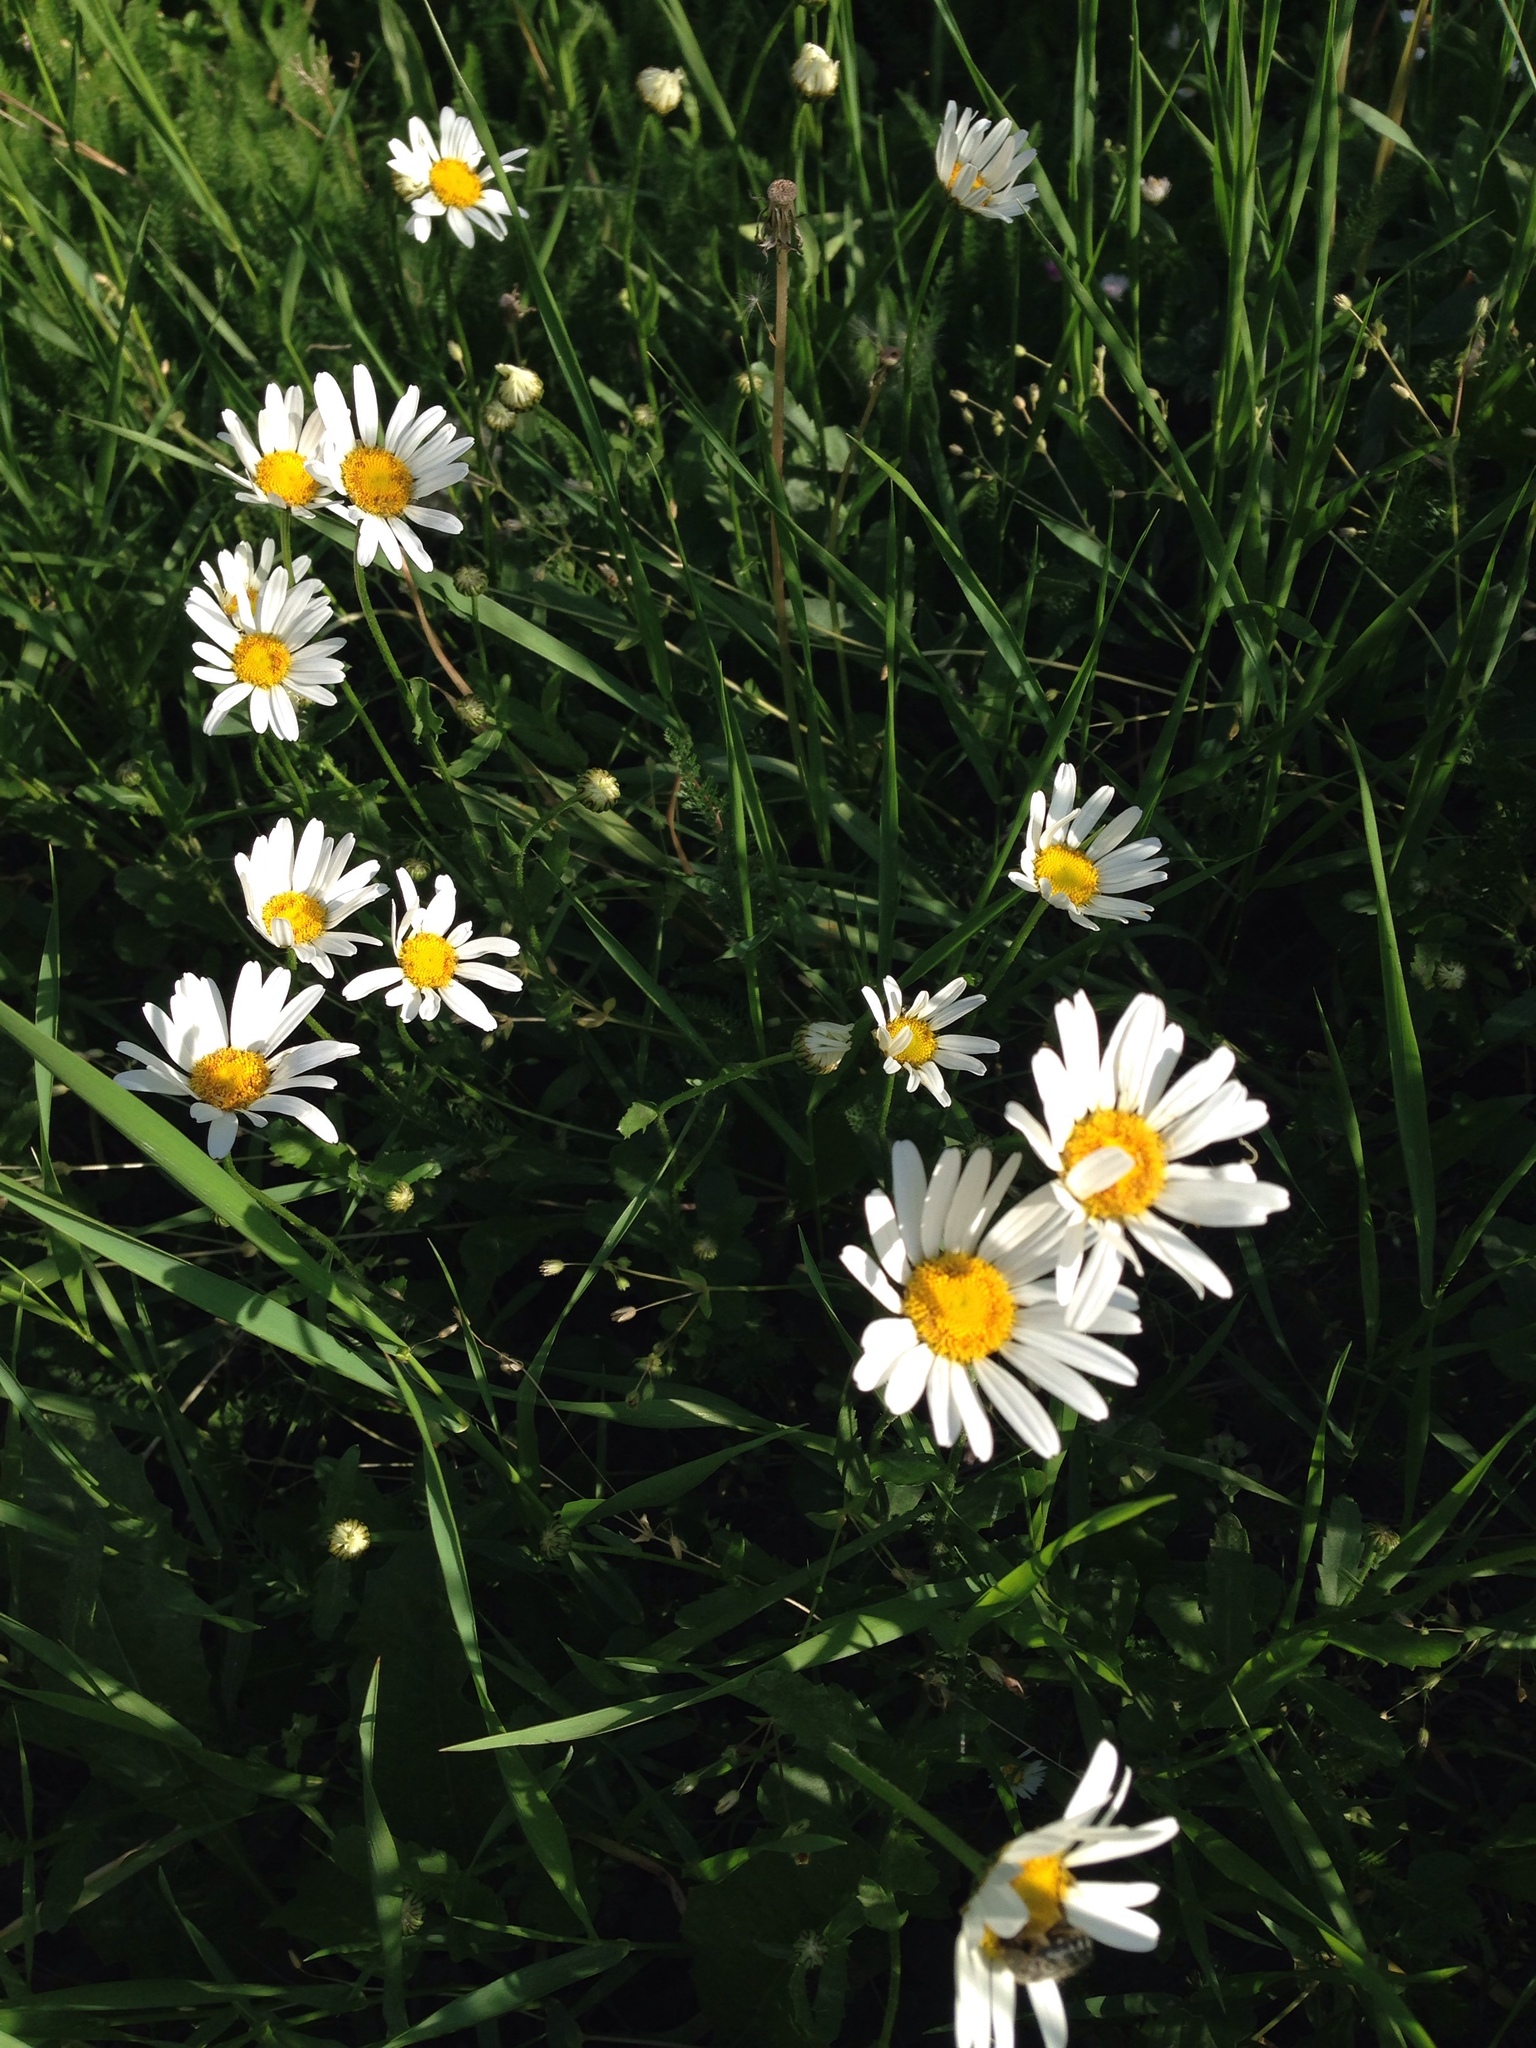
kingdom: Plantae
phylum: Tracheophyta
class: Magnoliopsida
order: Asterales
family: Asteraceae
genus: Leucanthemum
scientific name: Leucanthemum vulgare
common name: Oxeye daisy
